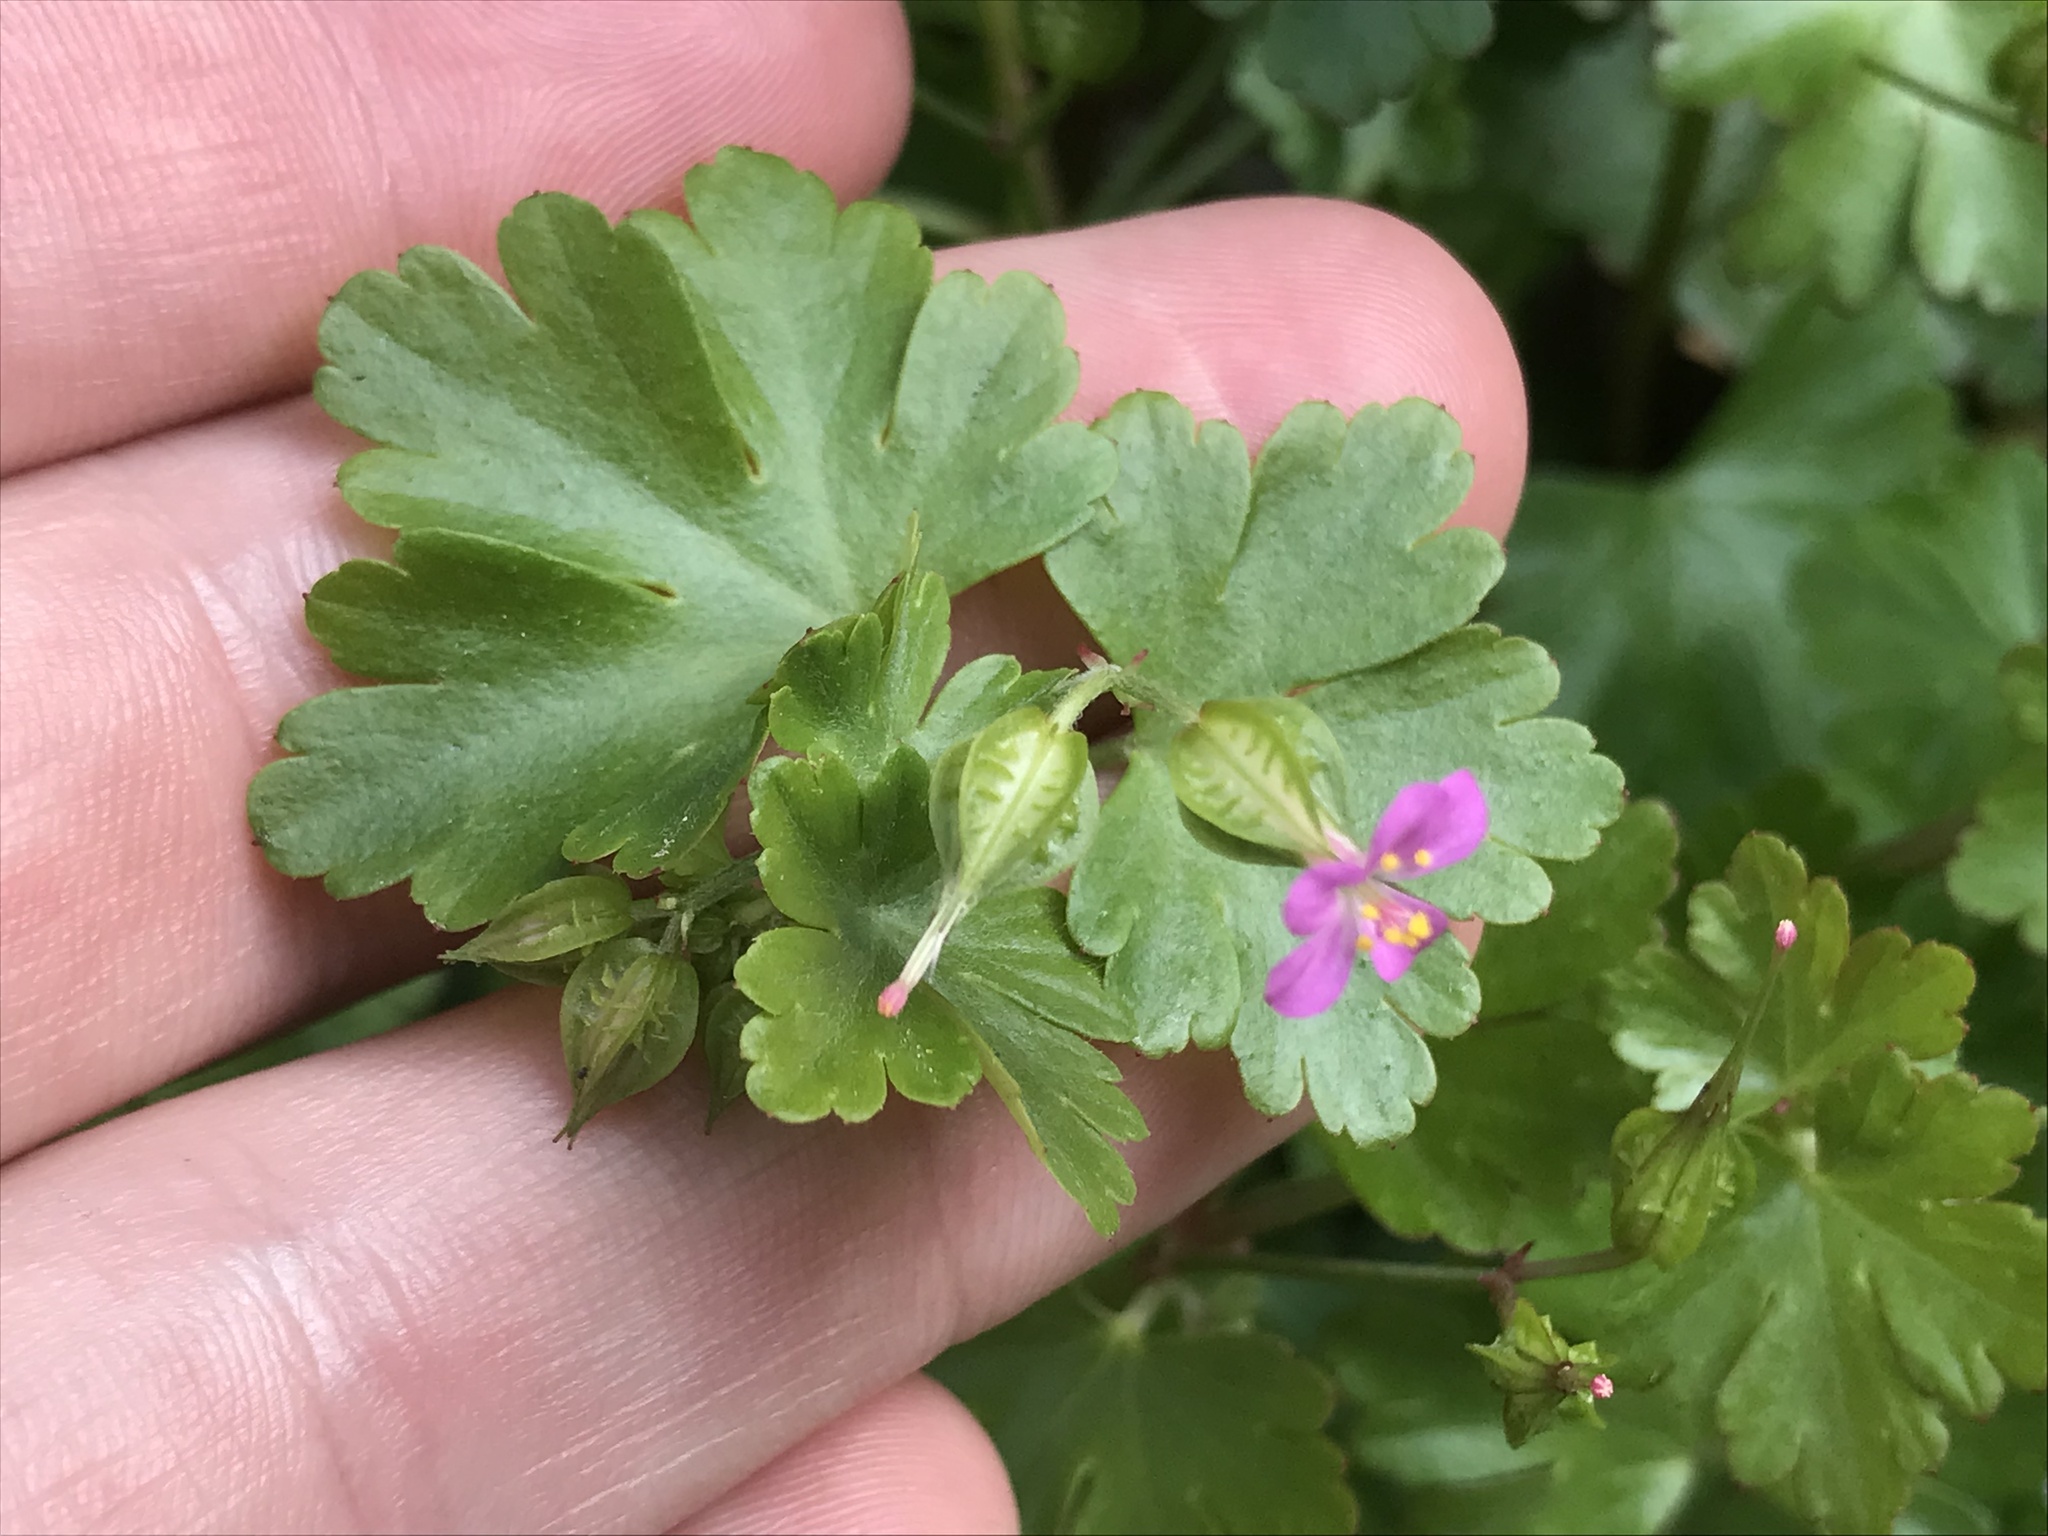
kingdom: Plantae
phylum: Tracheophyta
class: Magnoliopsida
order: Geraniales
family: Geraniaceae
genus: Geranium
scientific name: Geranium lucidum
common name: Shining crane's-bill
